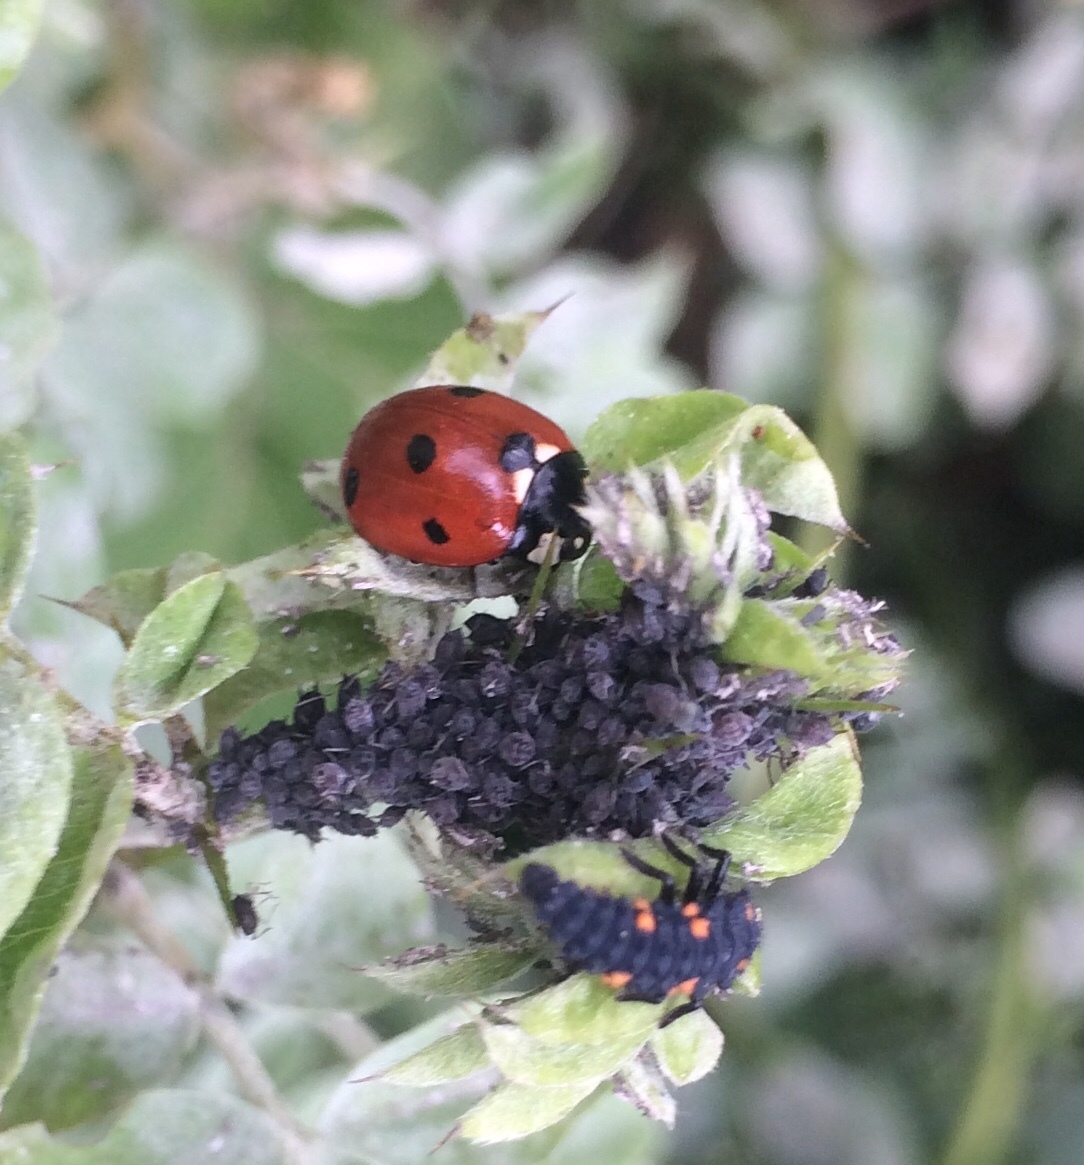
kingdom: Animalia
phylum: Arthropoda
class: Insecta
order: Coleoptera
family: Coccinellidae
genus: Coccinella
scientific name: Coccinella septempunctata
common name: Sevenspotted lady beetle
